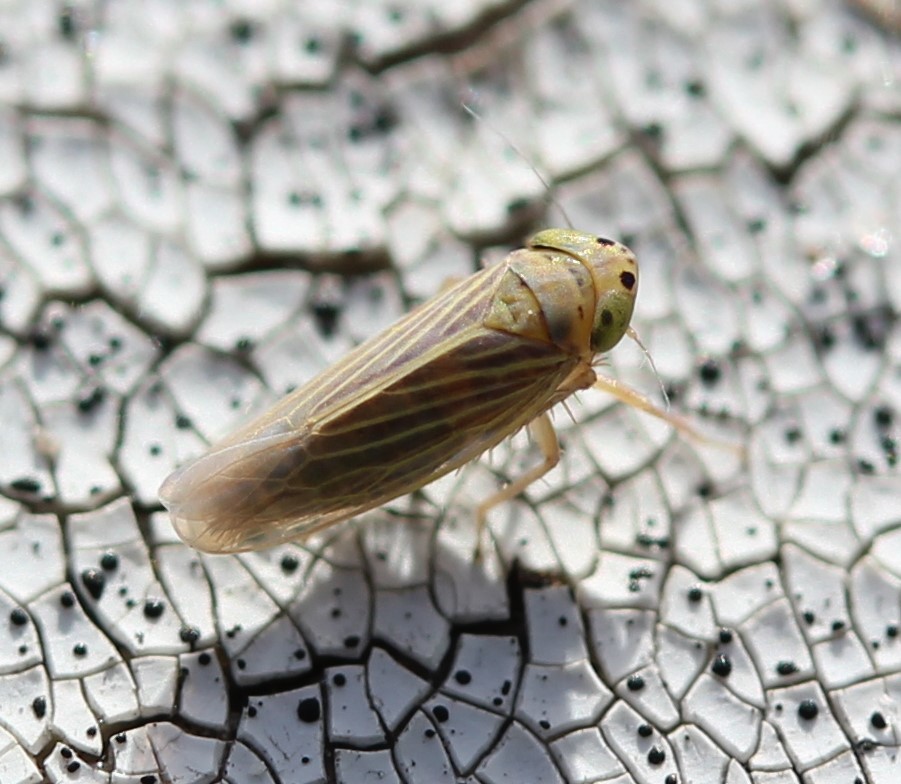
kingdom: Animalia
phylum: Arthropoda
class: Insecta
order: Hemiptera
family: Cicadellidae
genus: Graminella
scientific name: Graminella cognita
